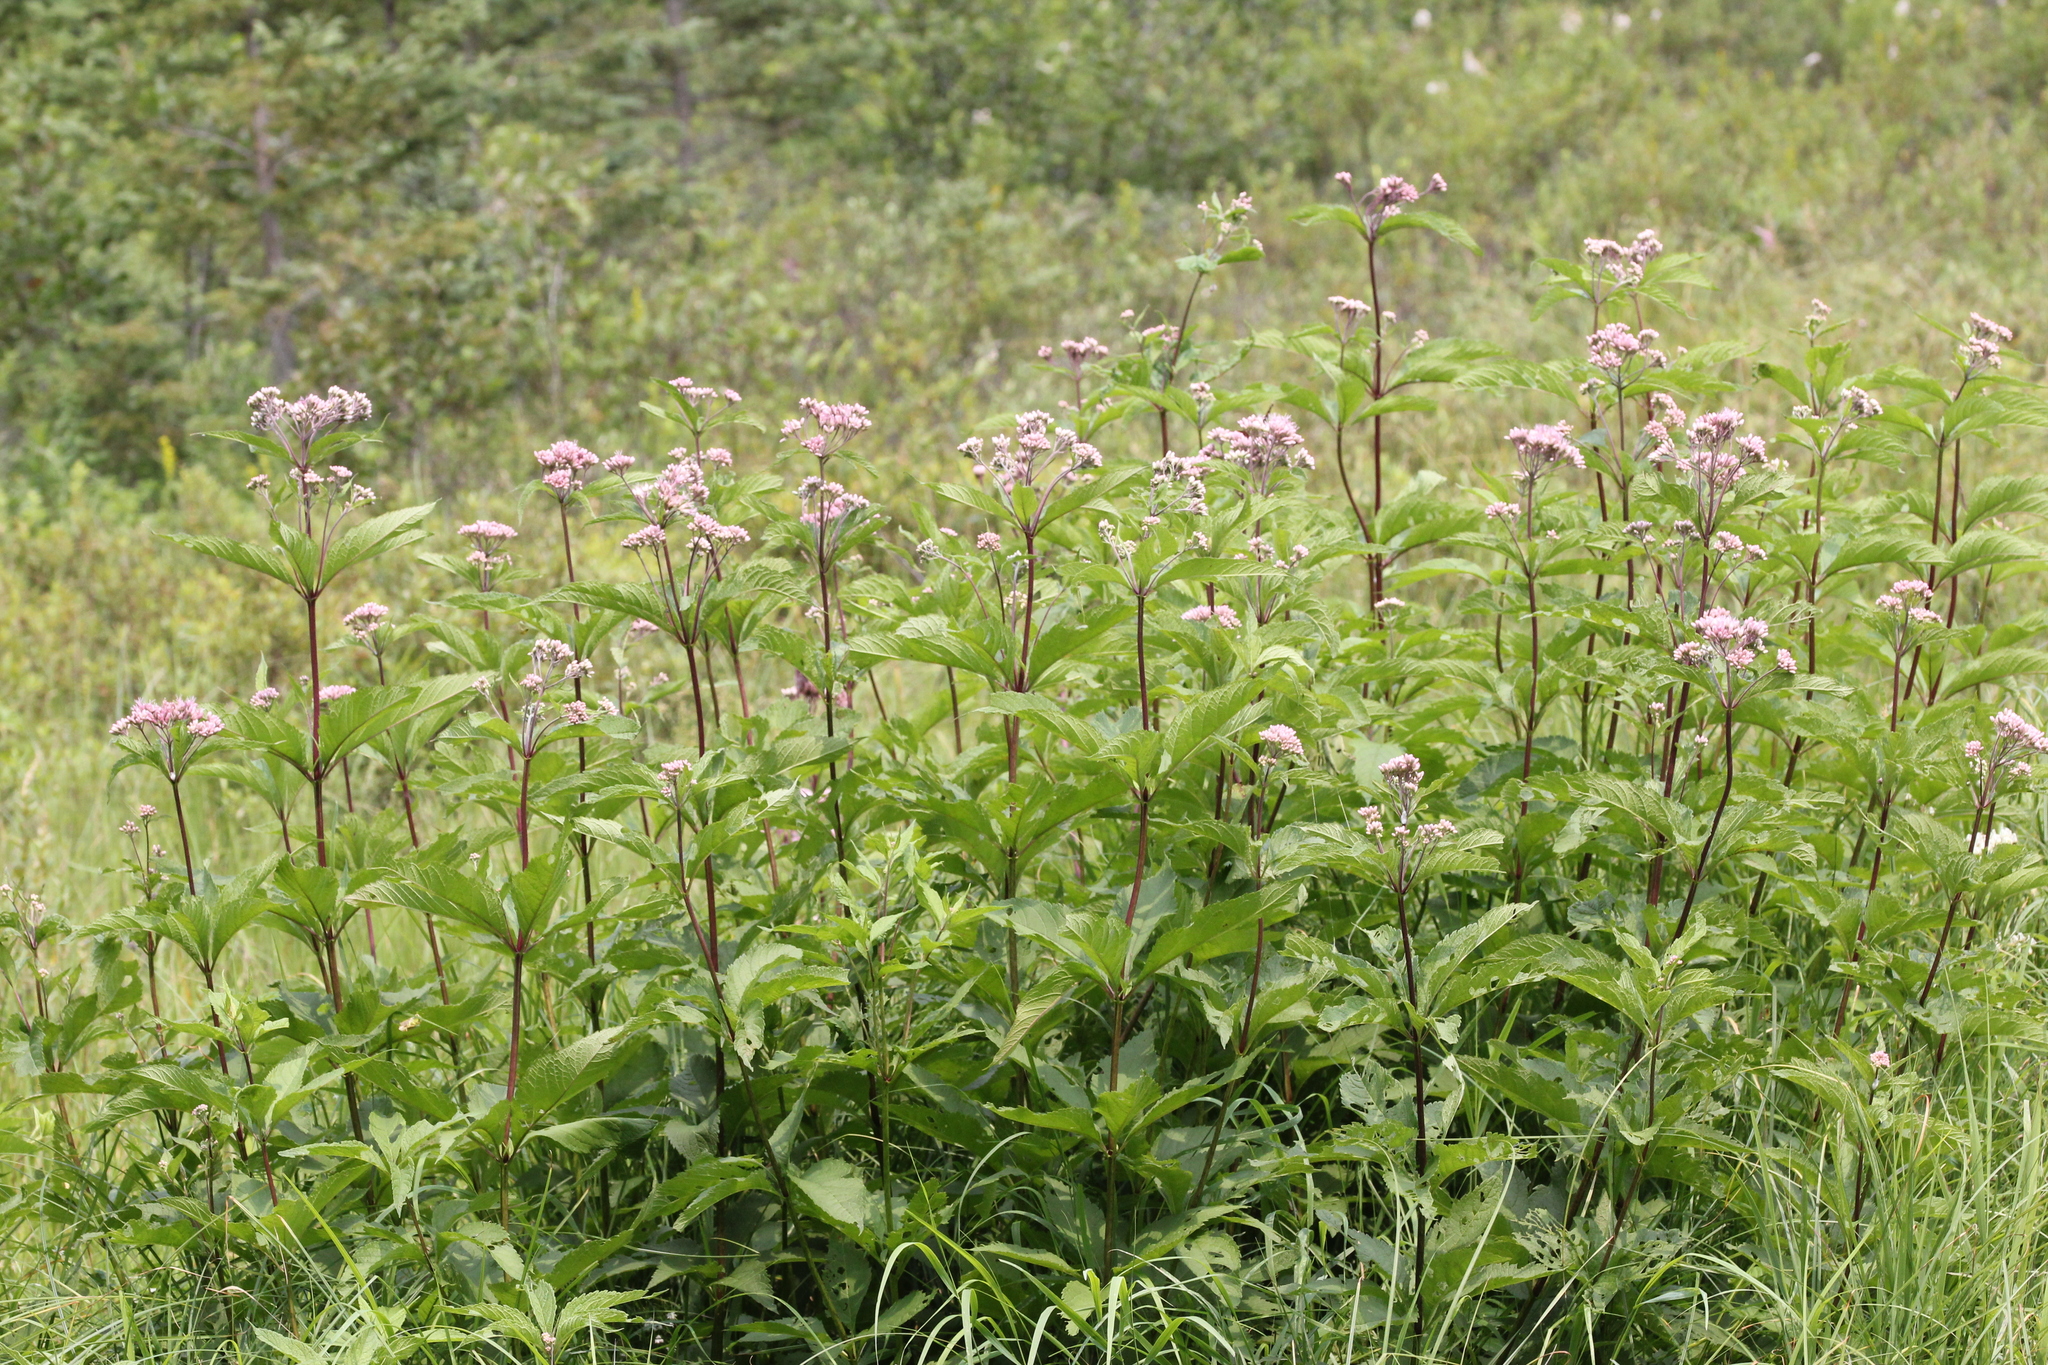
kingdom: Plantae
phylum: Tracheophyta
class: Magnoliopsida
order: Asterales
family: Asteraceae
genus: Eutrochium
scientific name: Eutrochium maculatum
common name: Spotted joe pye weed
